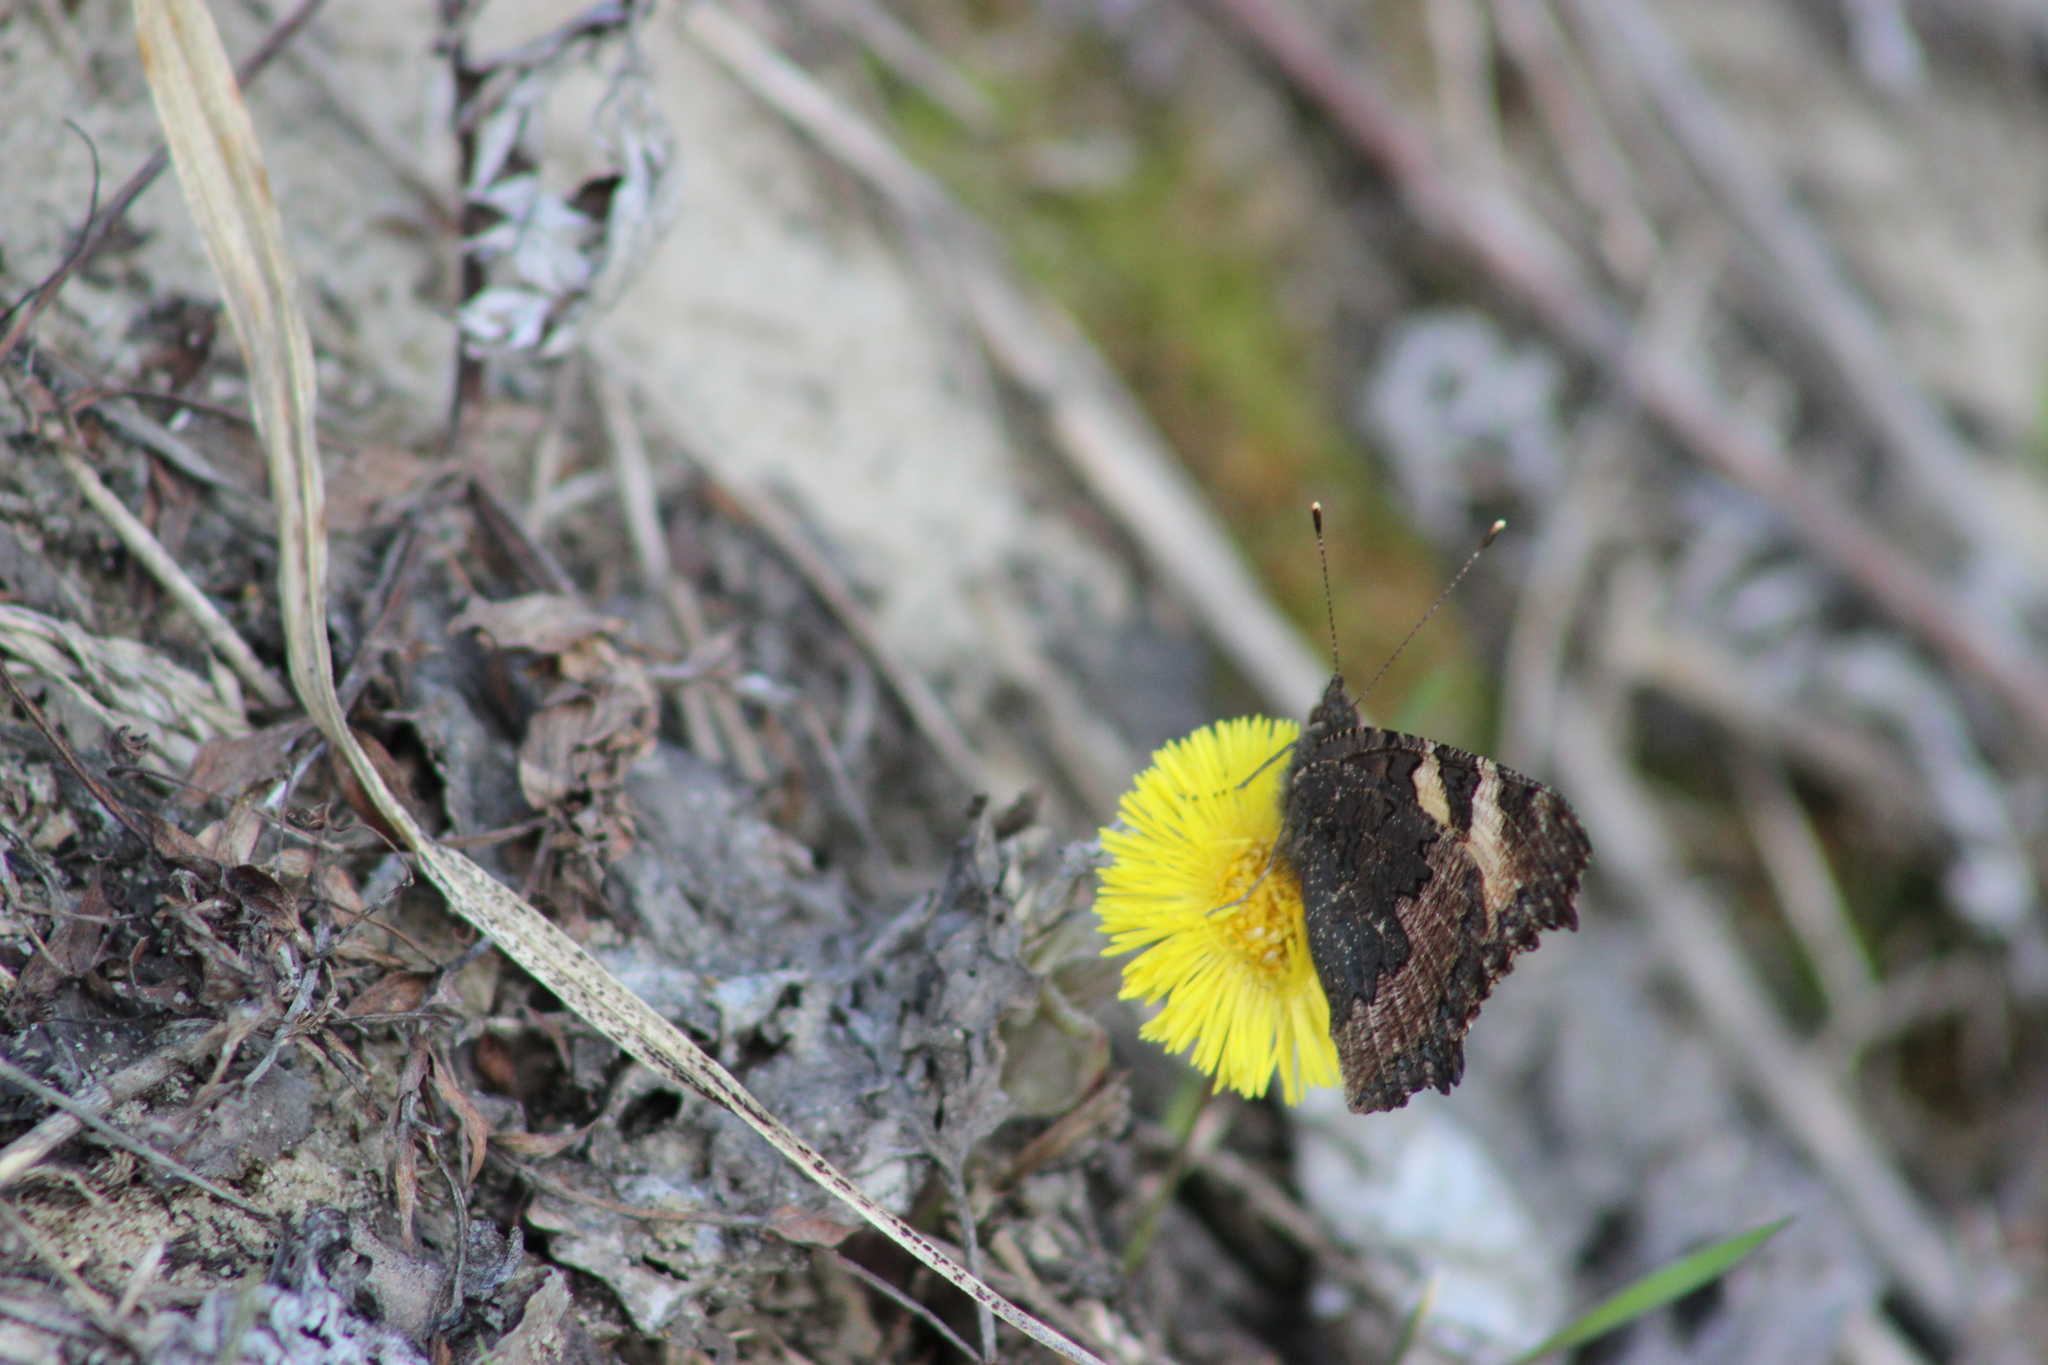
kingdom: Animalia
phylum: Arthropoda
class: Insecta
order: Lepidoptera
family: Nymphalidae
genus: Aglais
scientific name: Aglais urticae
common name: Small tortoiseshell
